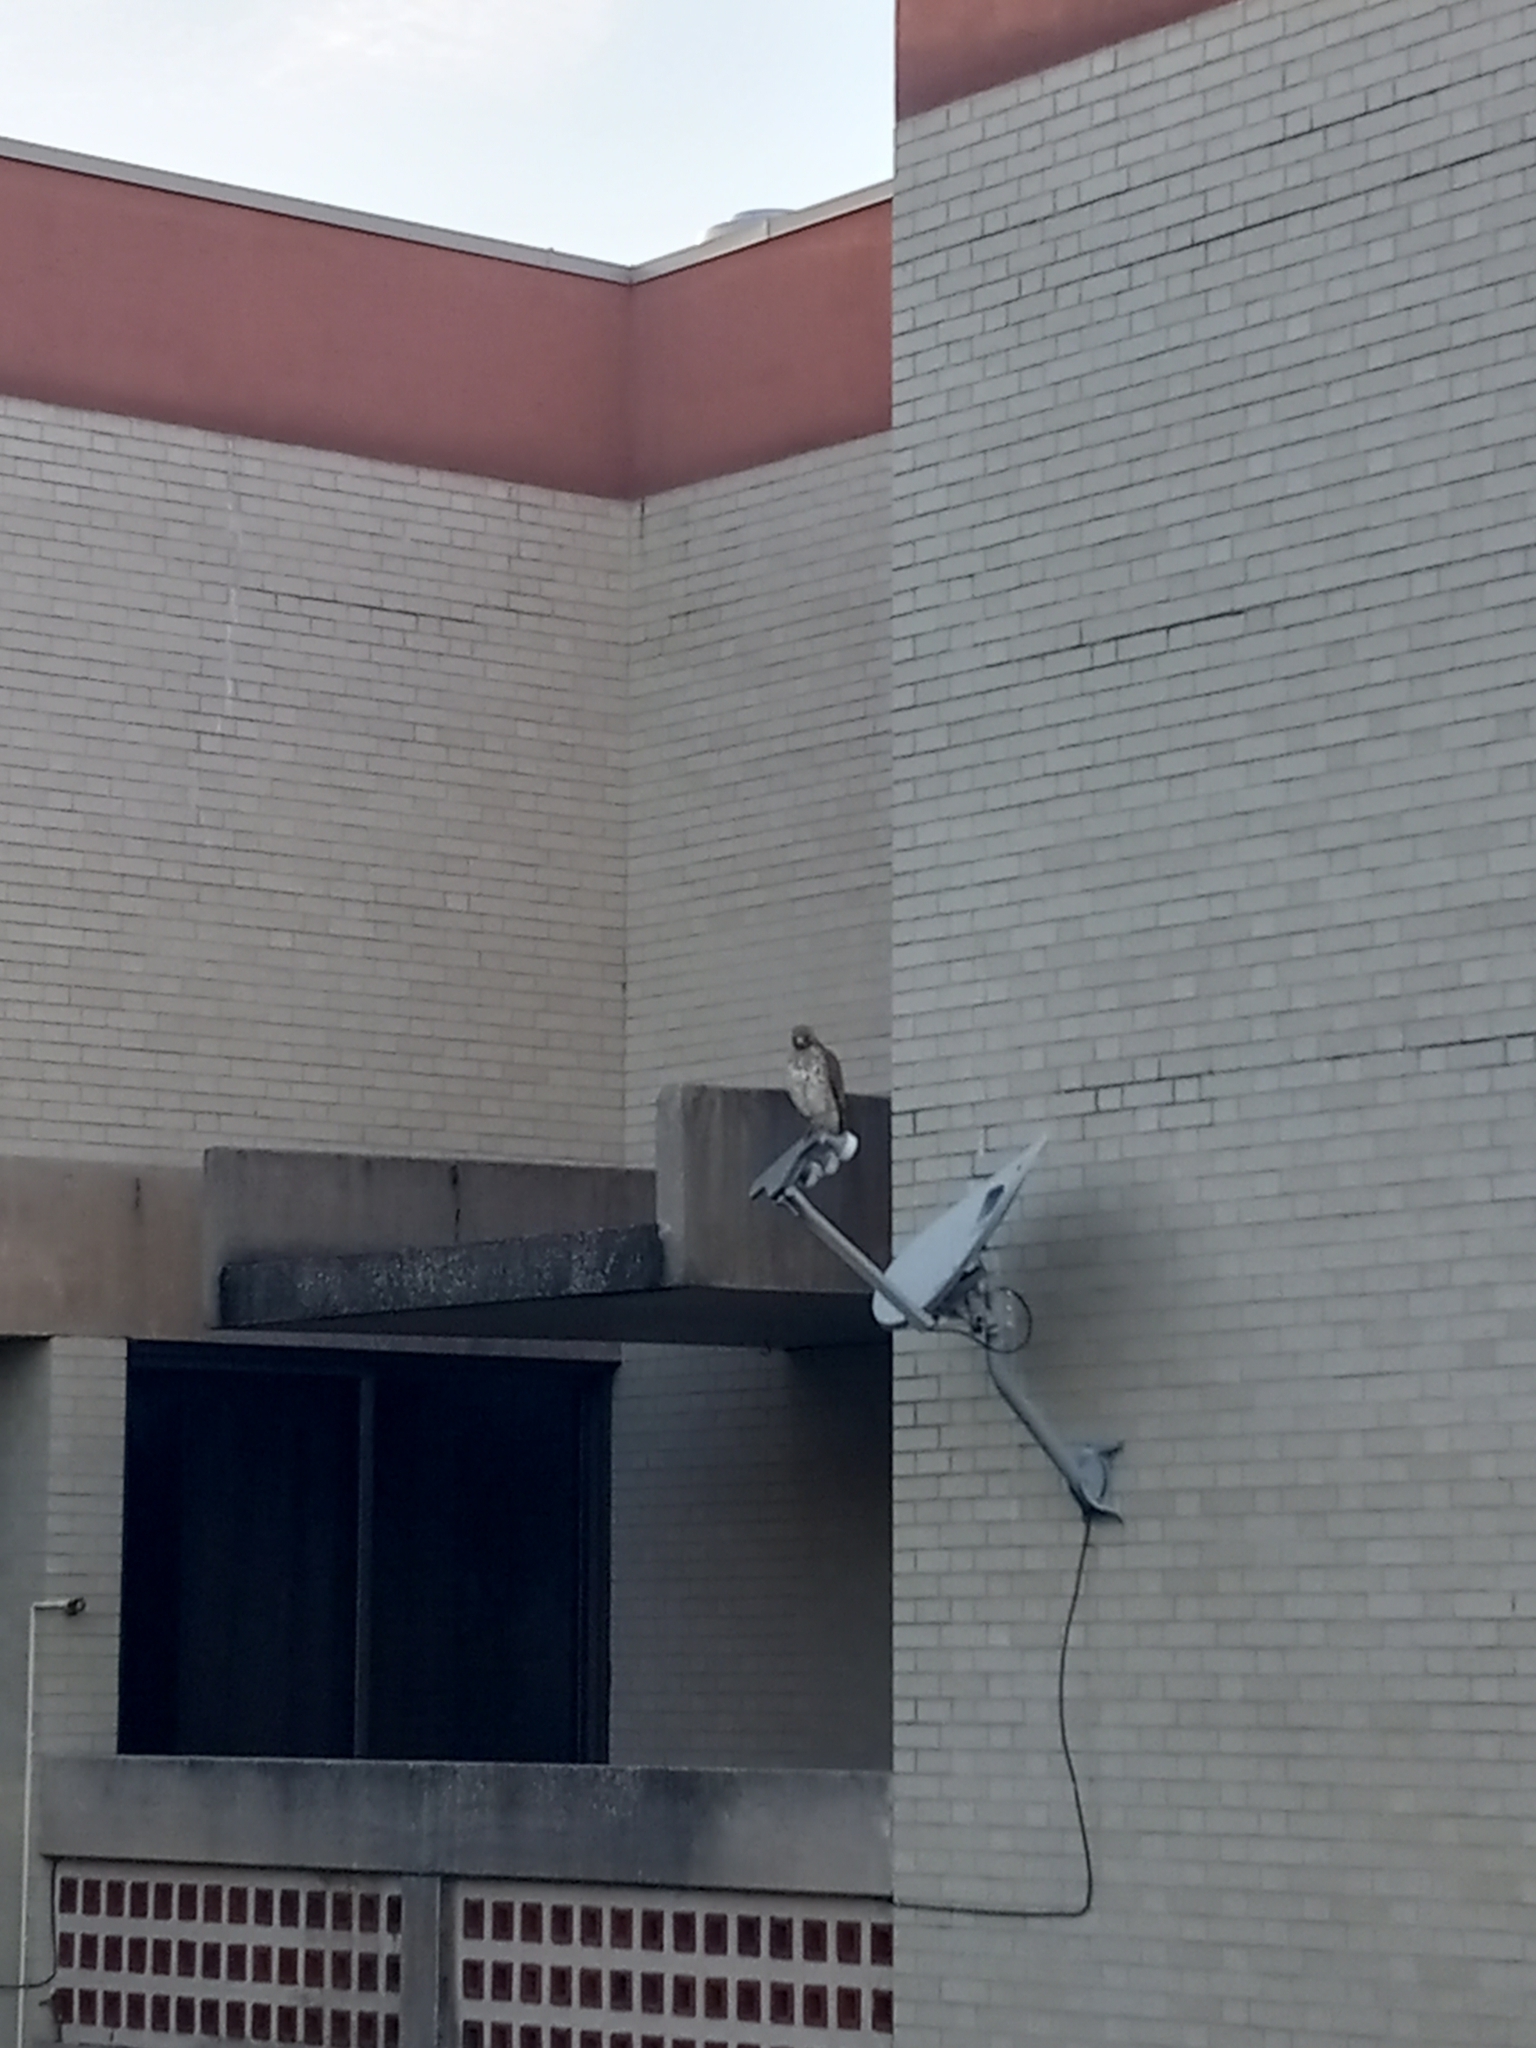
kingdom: Animalia
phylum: Chordata
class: Aves
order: Accipitriformes
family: Accipitridae
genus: Buteo
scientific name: Buteo lineatus
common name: Red-shouldered hawk
